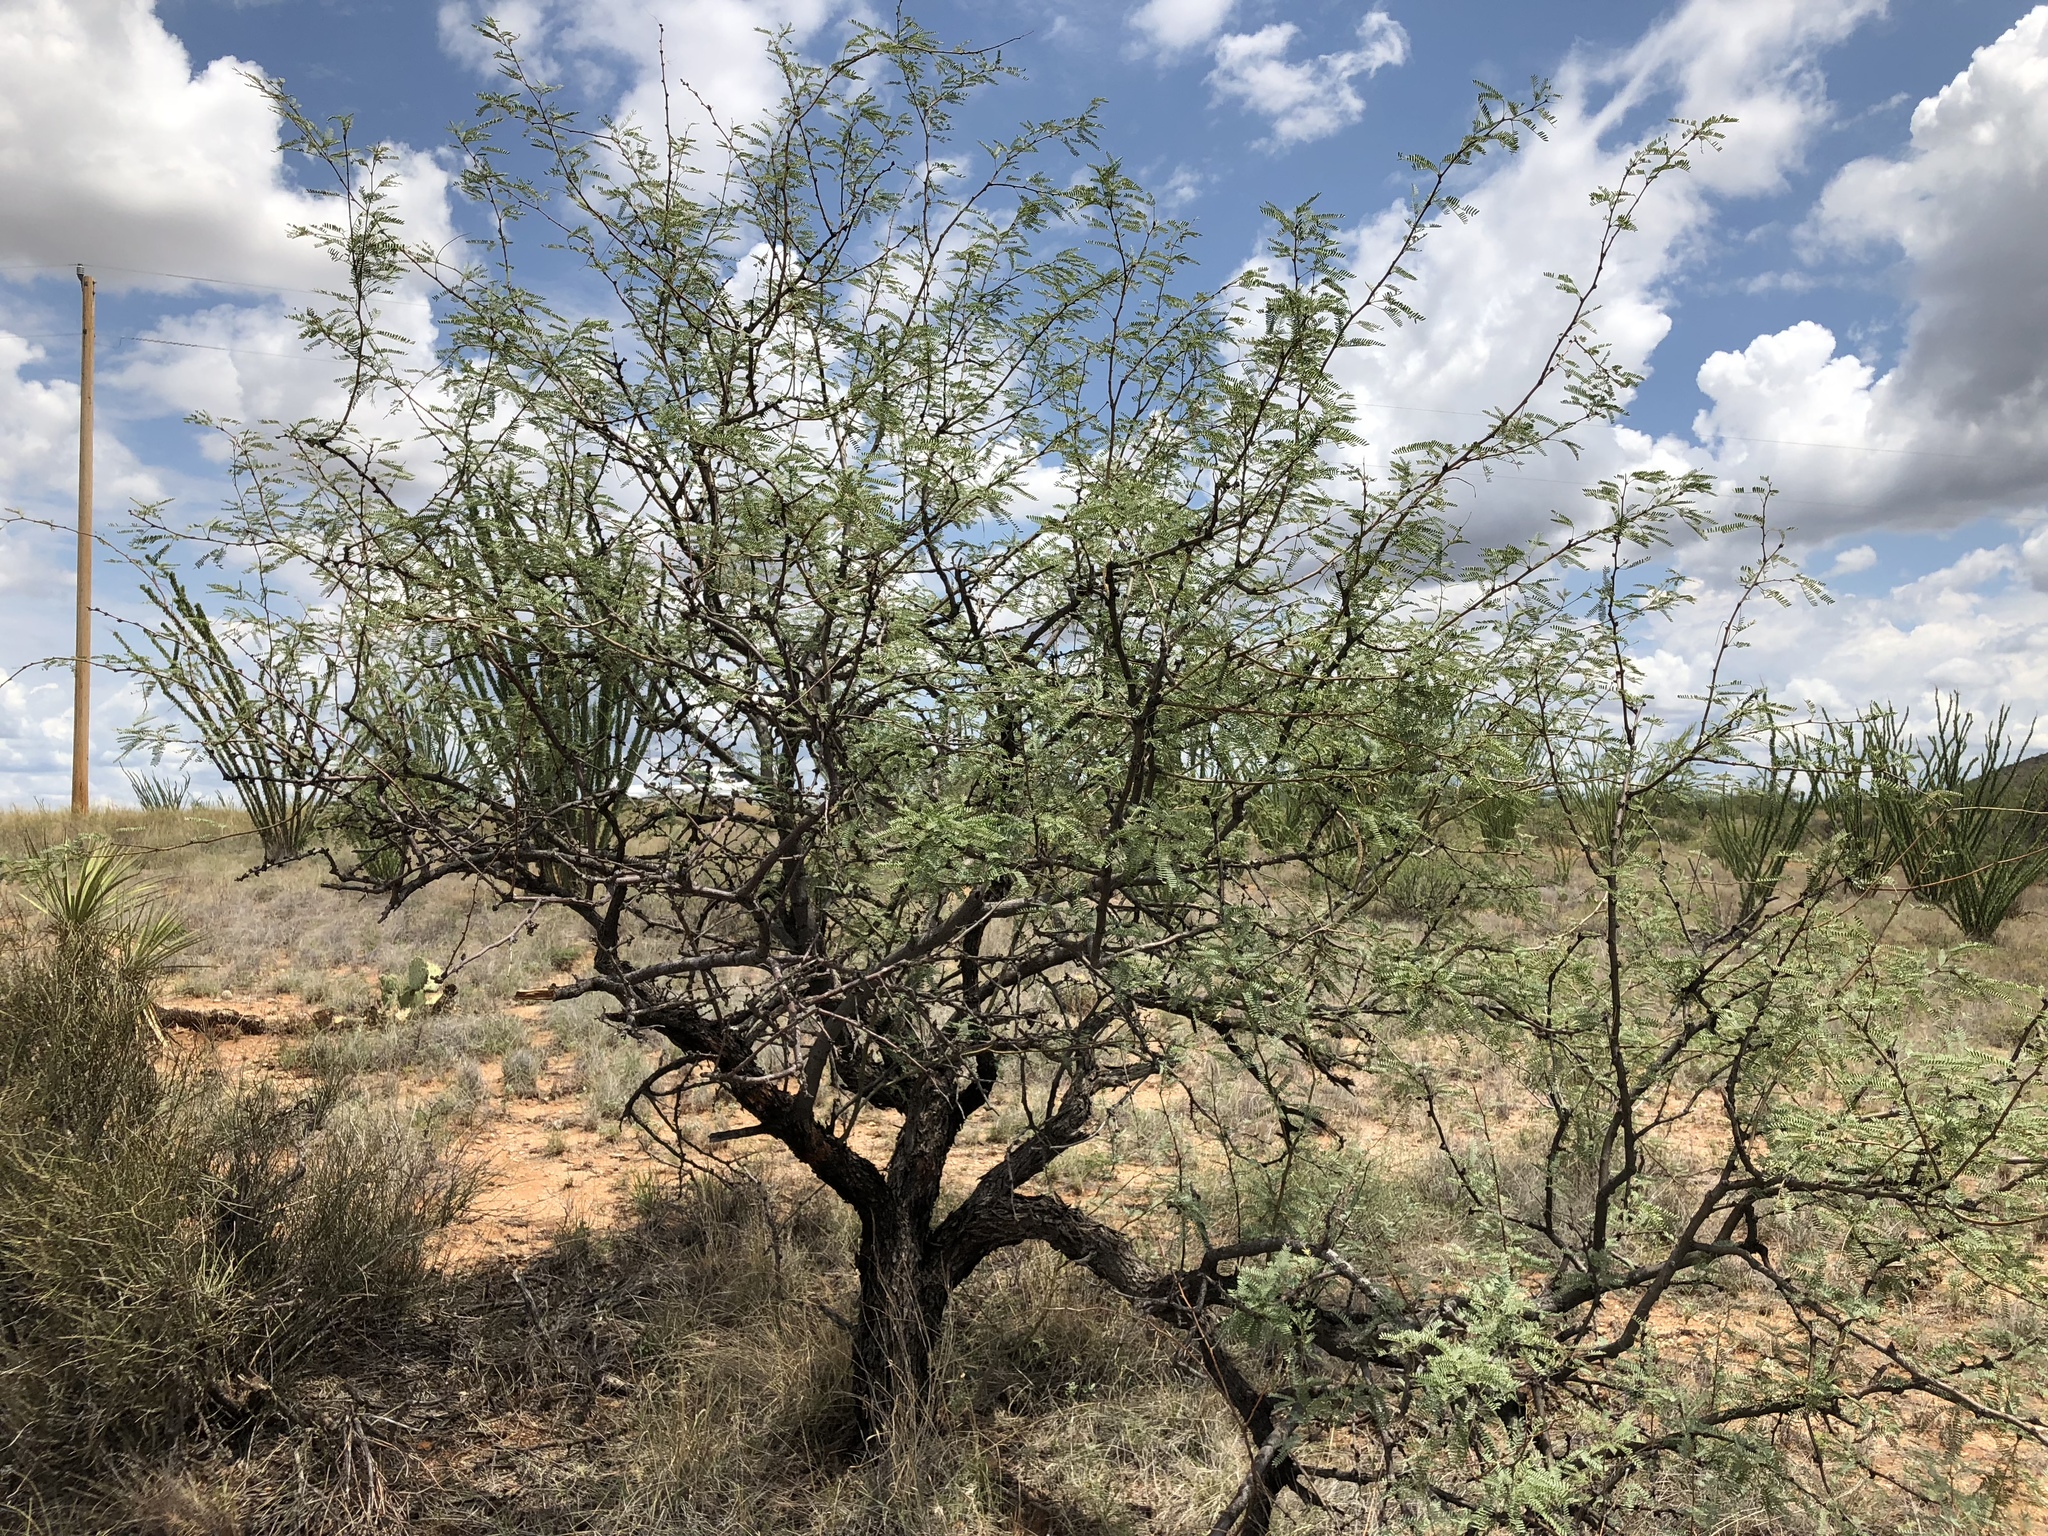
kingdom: Plantae
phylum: Tracheophyta
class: Magnoliopsida
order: Fabales
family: Fabaceae
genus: Prosopis
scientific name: Prosopis velutina
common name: Velvet mesquite
